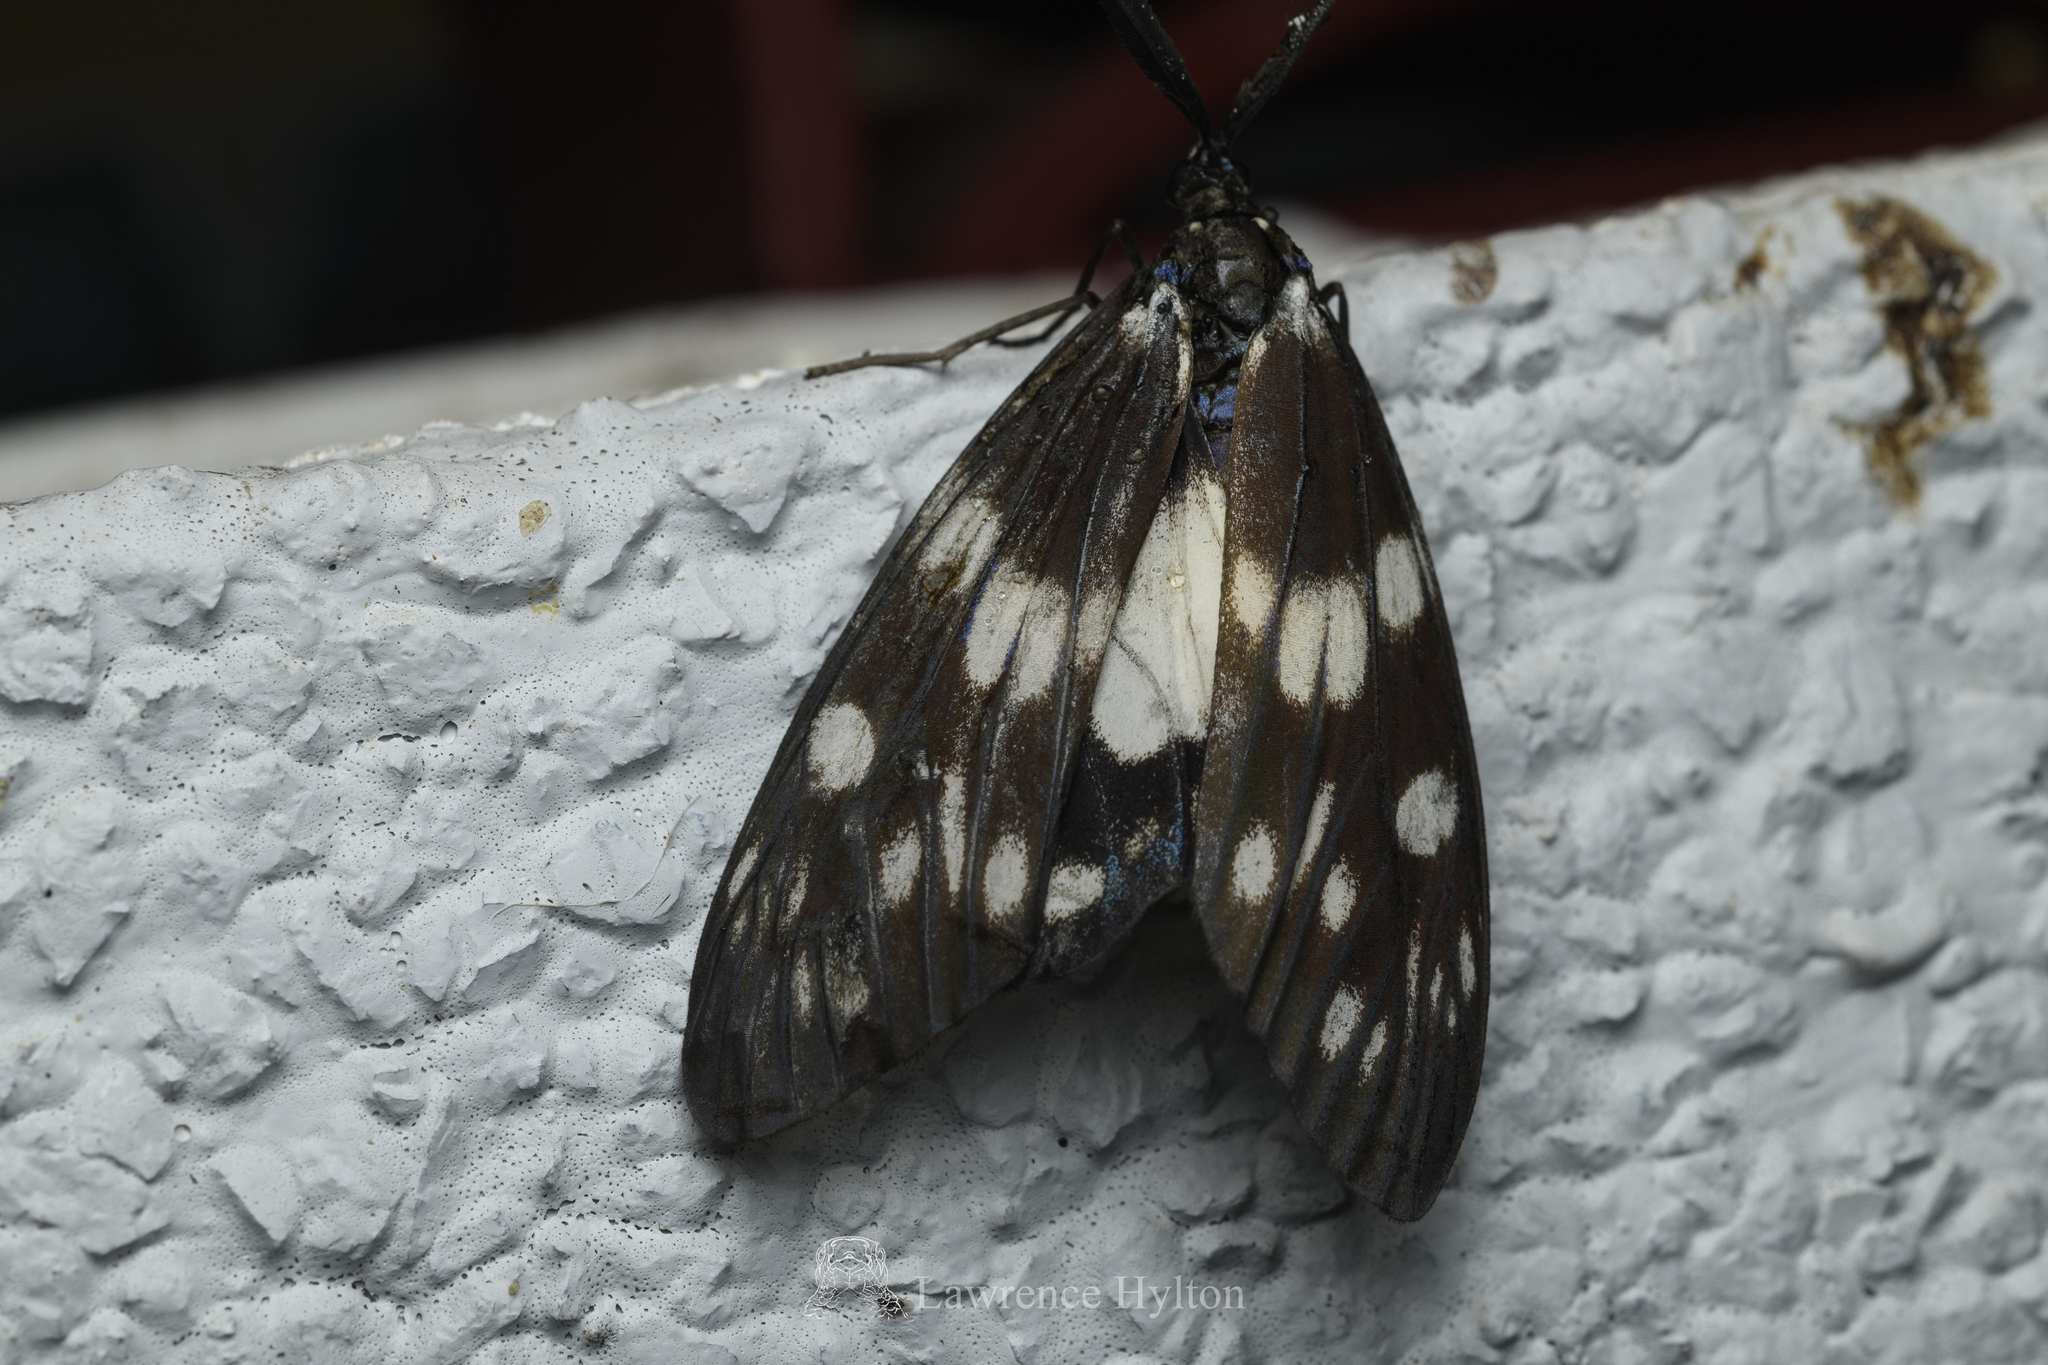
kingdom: Animalia
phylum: Arthropoda
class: Insecta
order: Lepidoptera
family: Zygaenidae
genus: Eterusia
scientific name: Eterusia aedea
